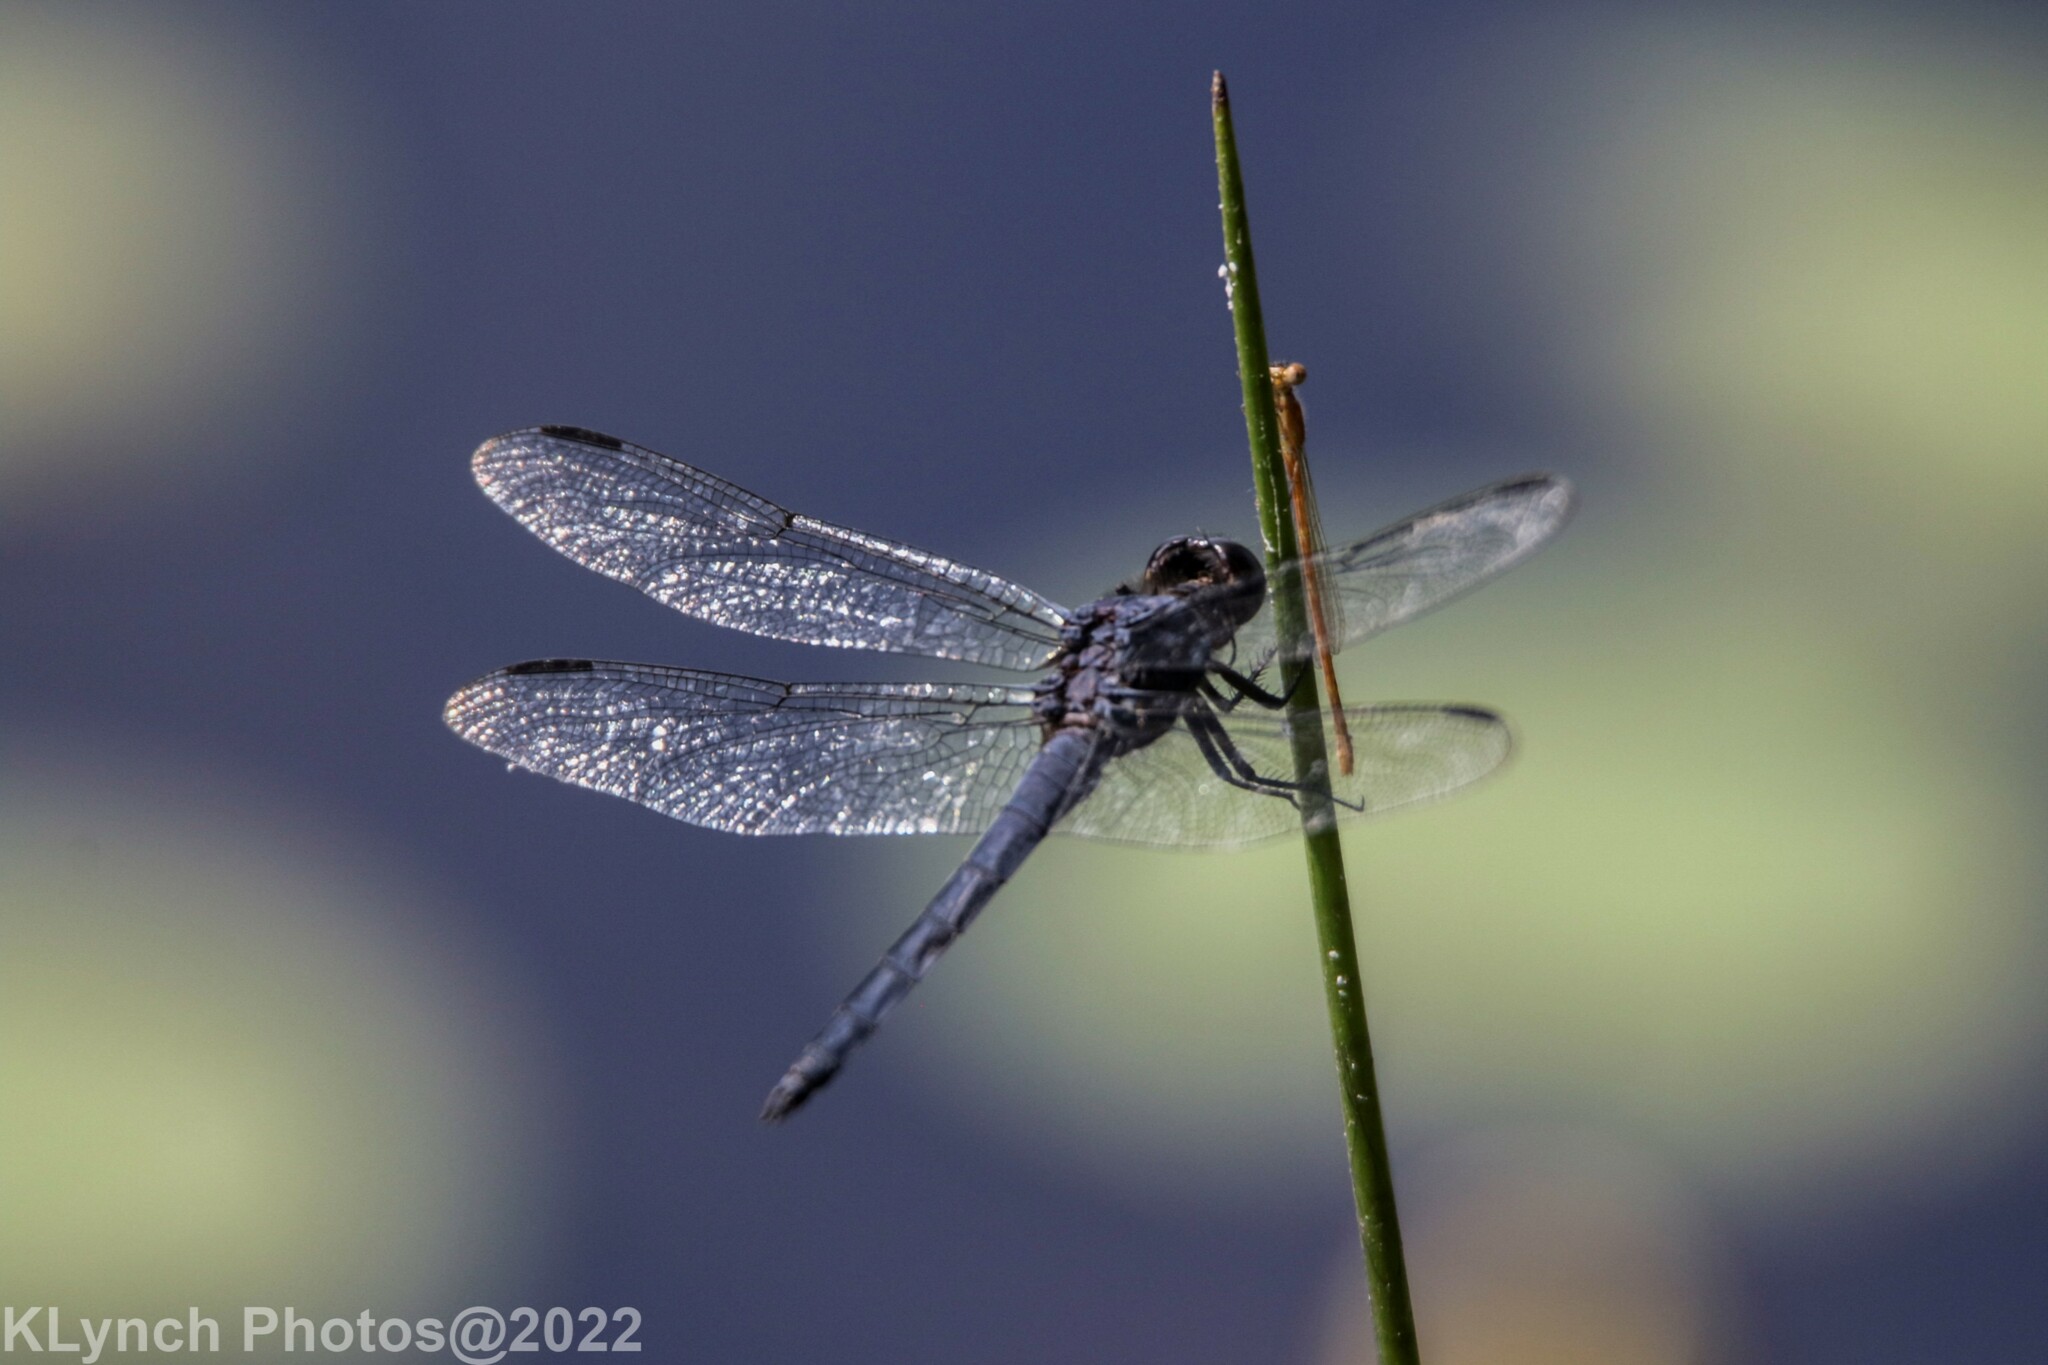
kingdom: Animalia
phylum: Arthropoda
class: Insecta
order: Odonata
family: Libellulidae
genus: Libellula
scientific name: Libellula incesta
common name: Slaty skimmer
